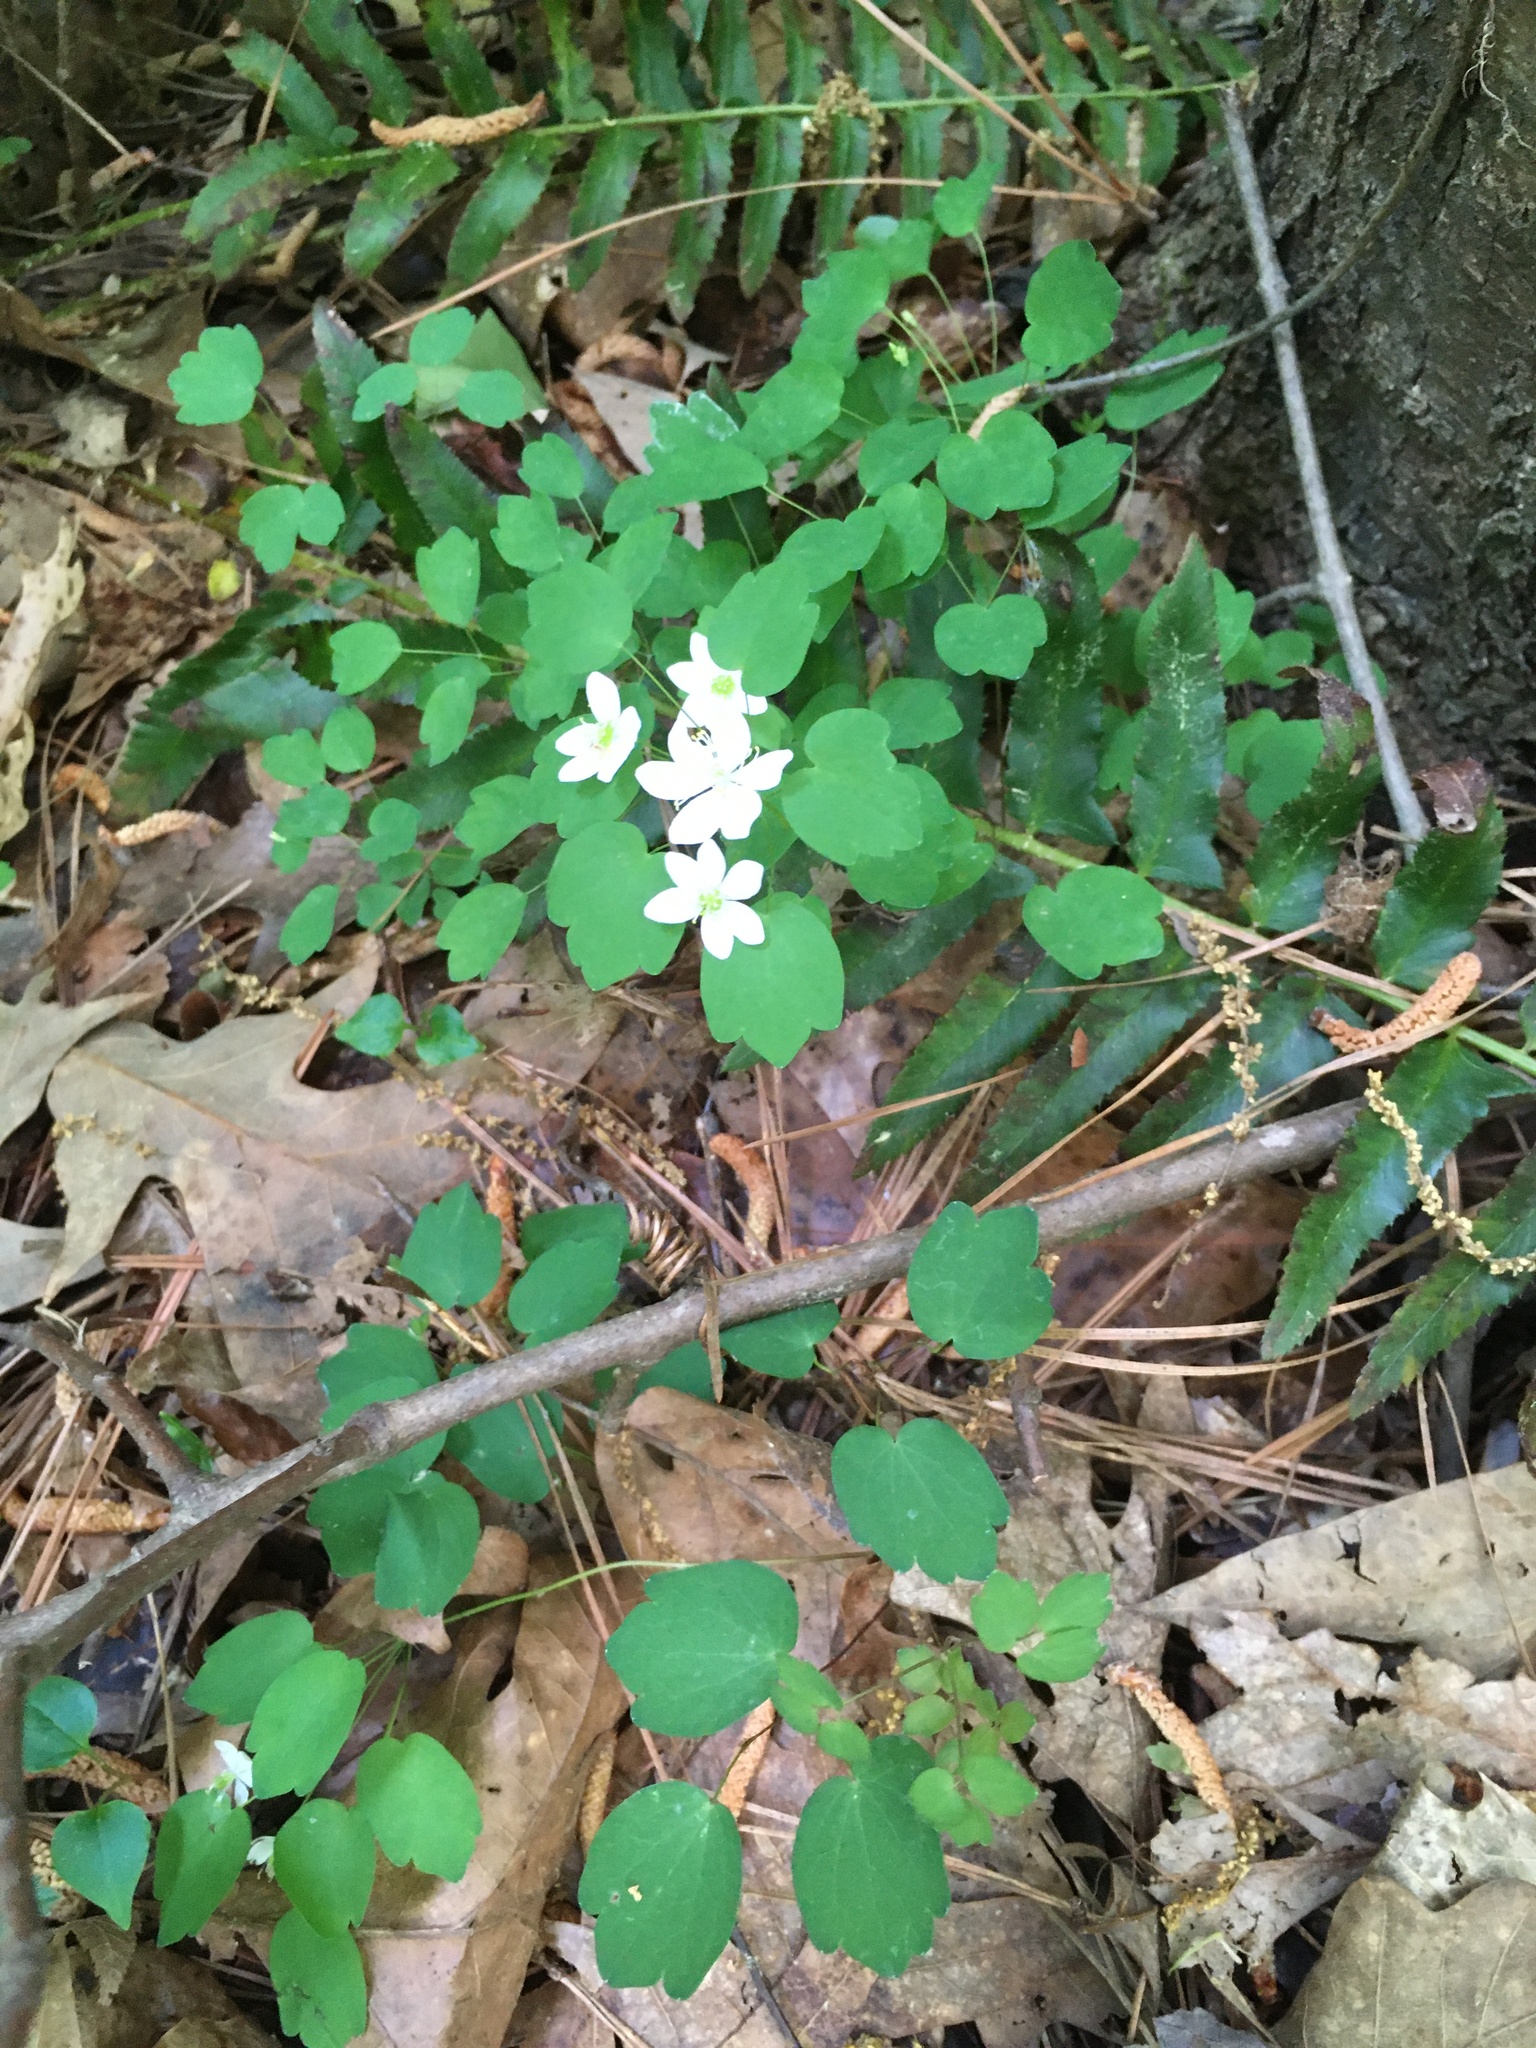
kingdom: Plantae
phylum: Tracheophyta
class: Magnoliopsida
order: Ranunculales
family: Ranunculaceae
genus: Thalictrum
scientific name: Thalictrum thalictroides
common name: Rue-anemone
